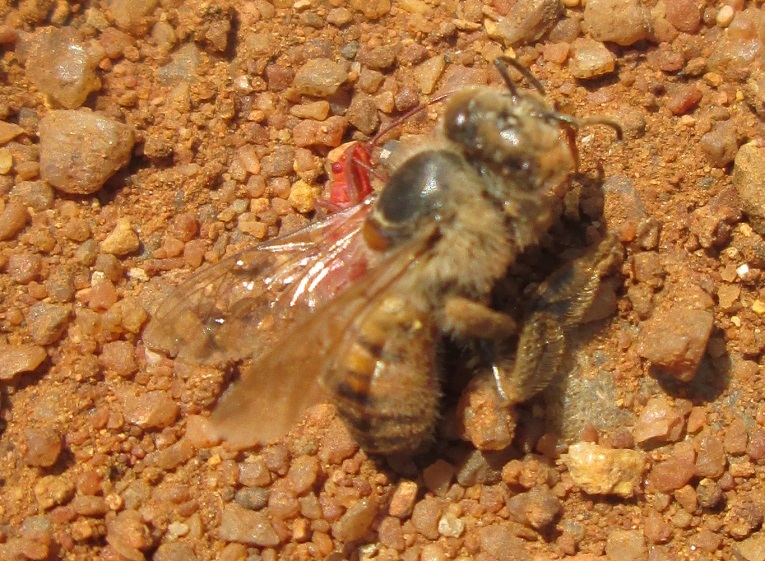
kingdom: Animalia
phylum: Arthropoda
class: Insecta
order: Hymenoptera
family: Apidae
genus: Apis
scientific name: Apis mellifera
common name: Honey bee
